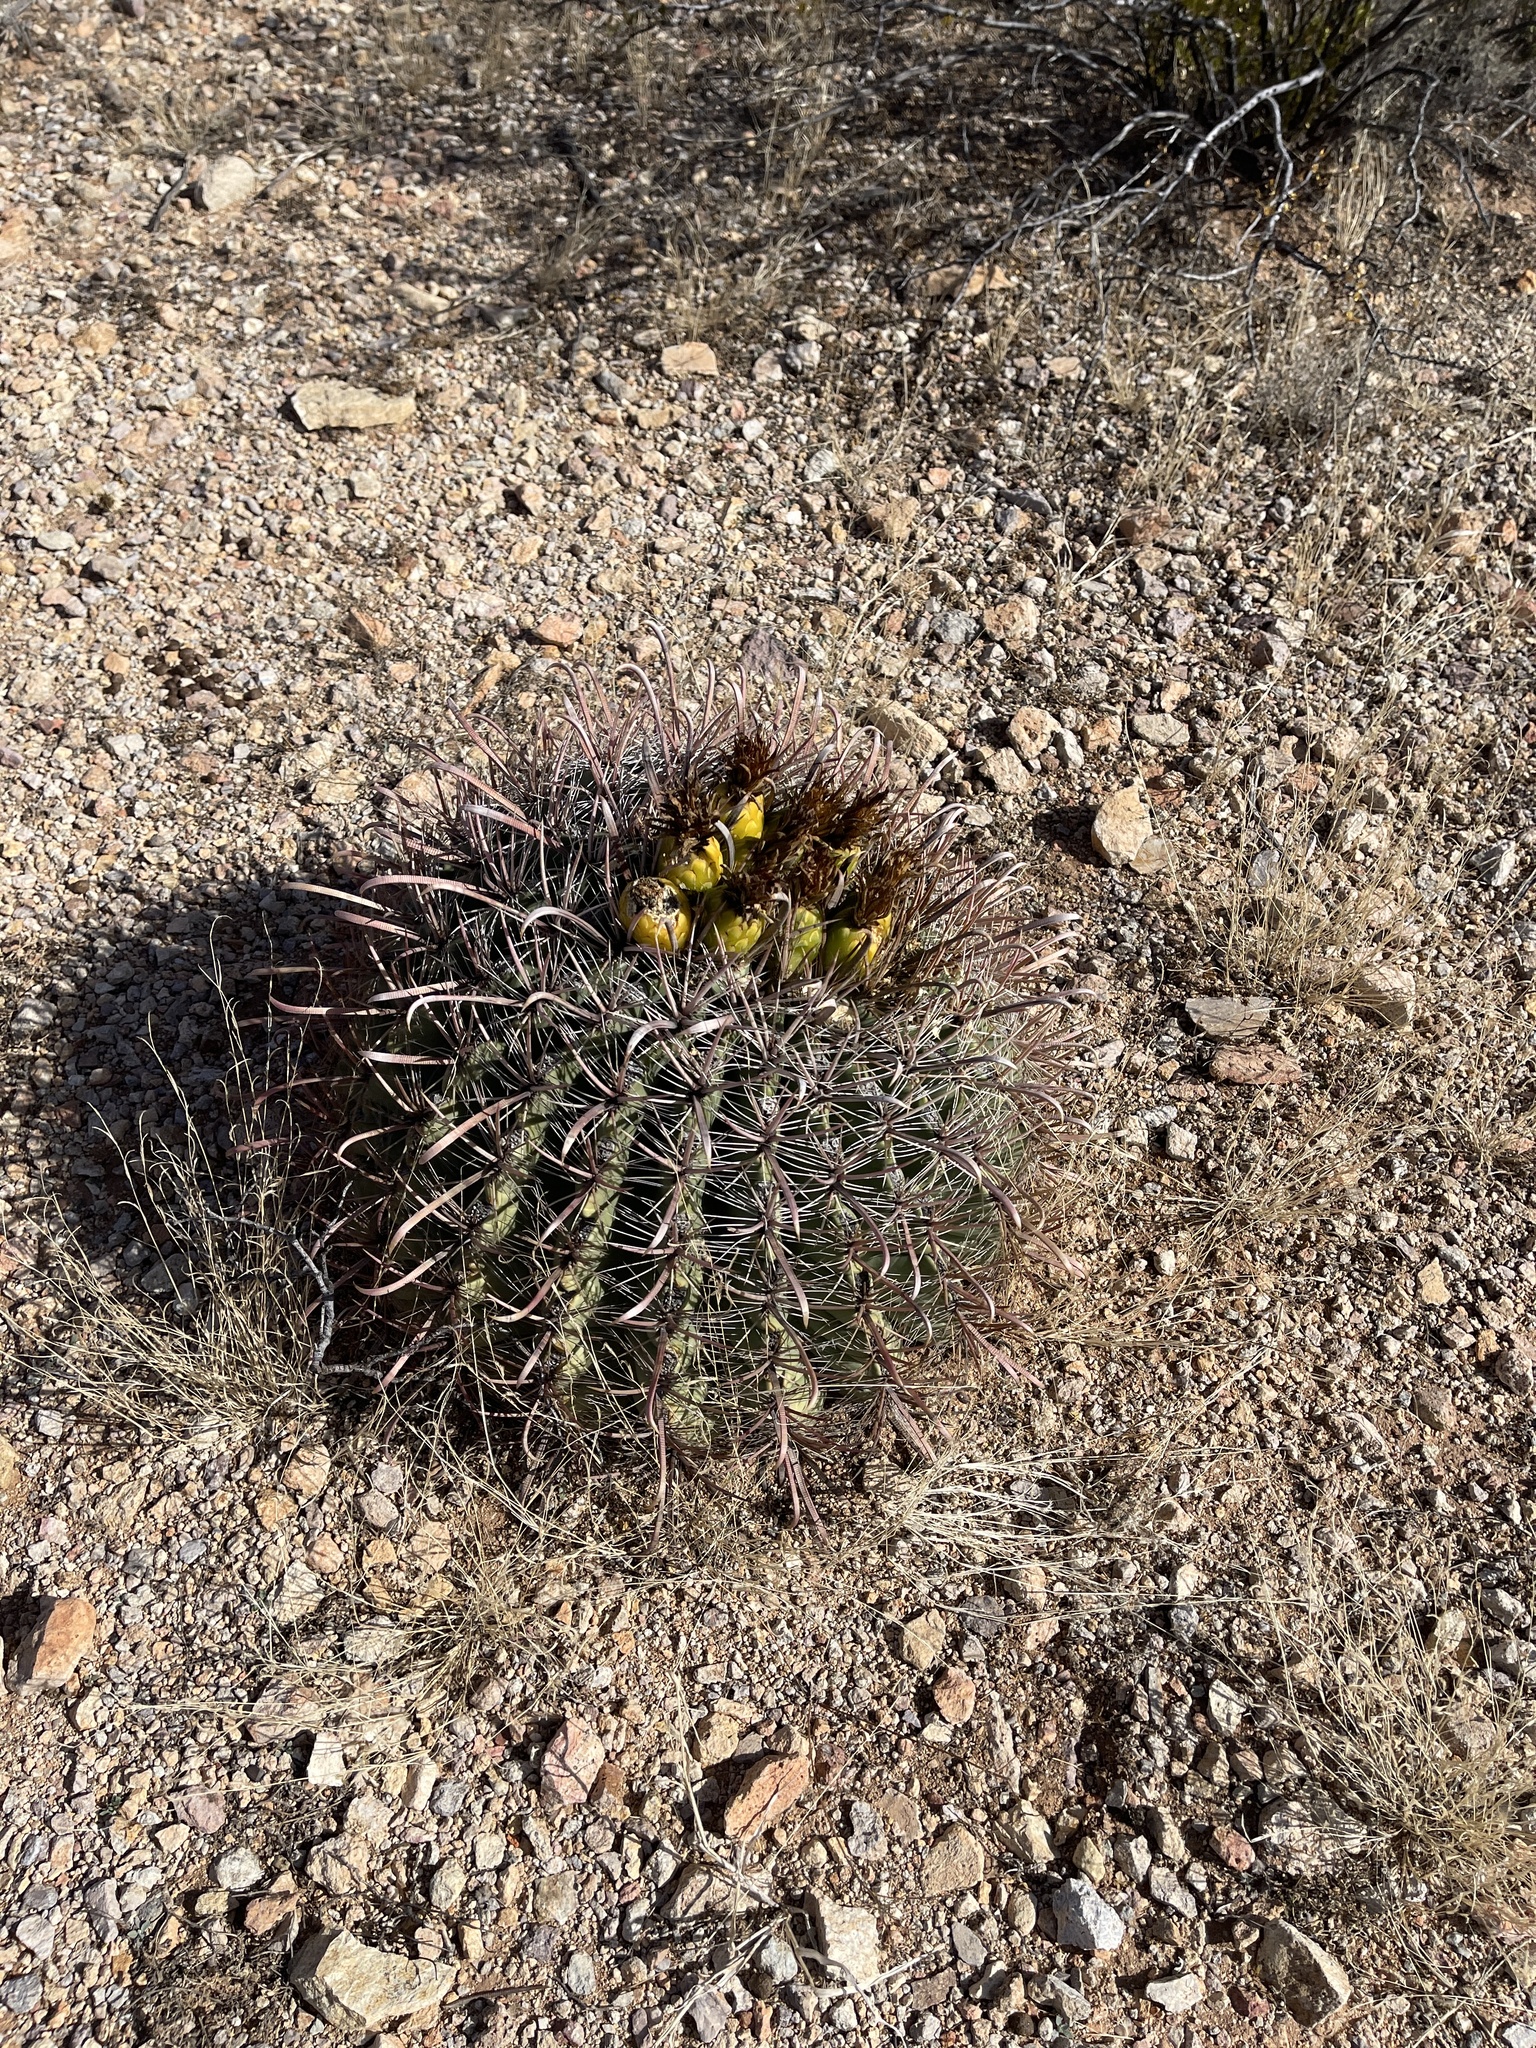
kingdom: Plantae
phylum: Tracheophyta
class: Magnoliopsida
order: Caryophyllales
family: Cactaceae
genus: Ferocactus
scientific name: Ferocactus wislizeni
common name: Candy barrel cactus
